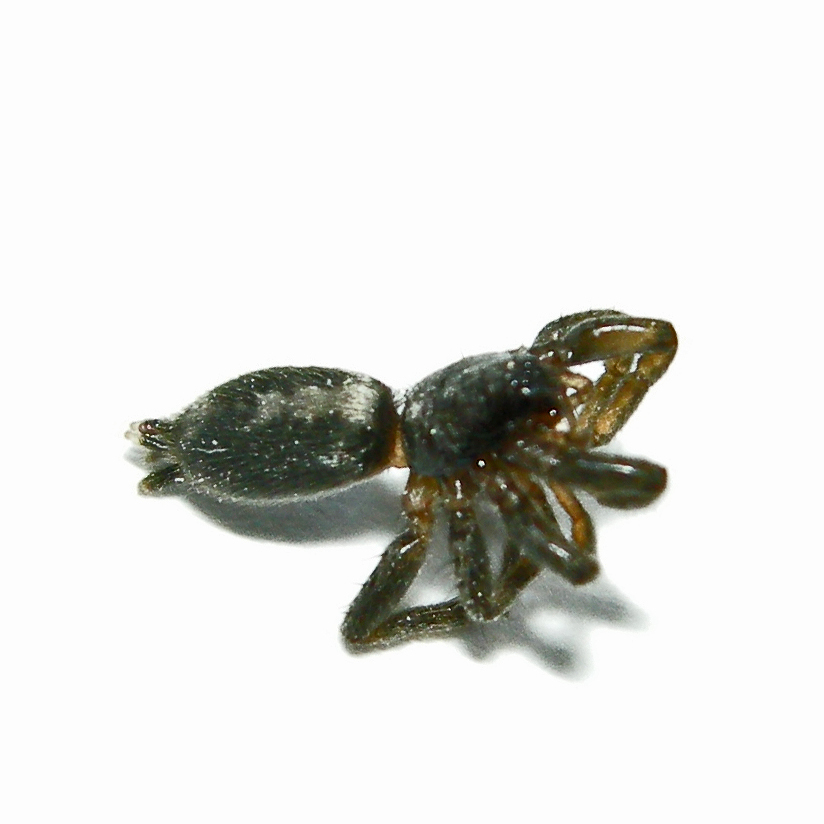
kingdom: Animalia
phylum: Arthropoda
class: Arachnida
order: Araneae
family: Gnaphosidae
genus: Herpyllus
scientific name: Herpyllus ecclesiasticus
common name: Eastern parson spider
